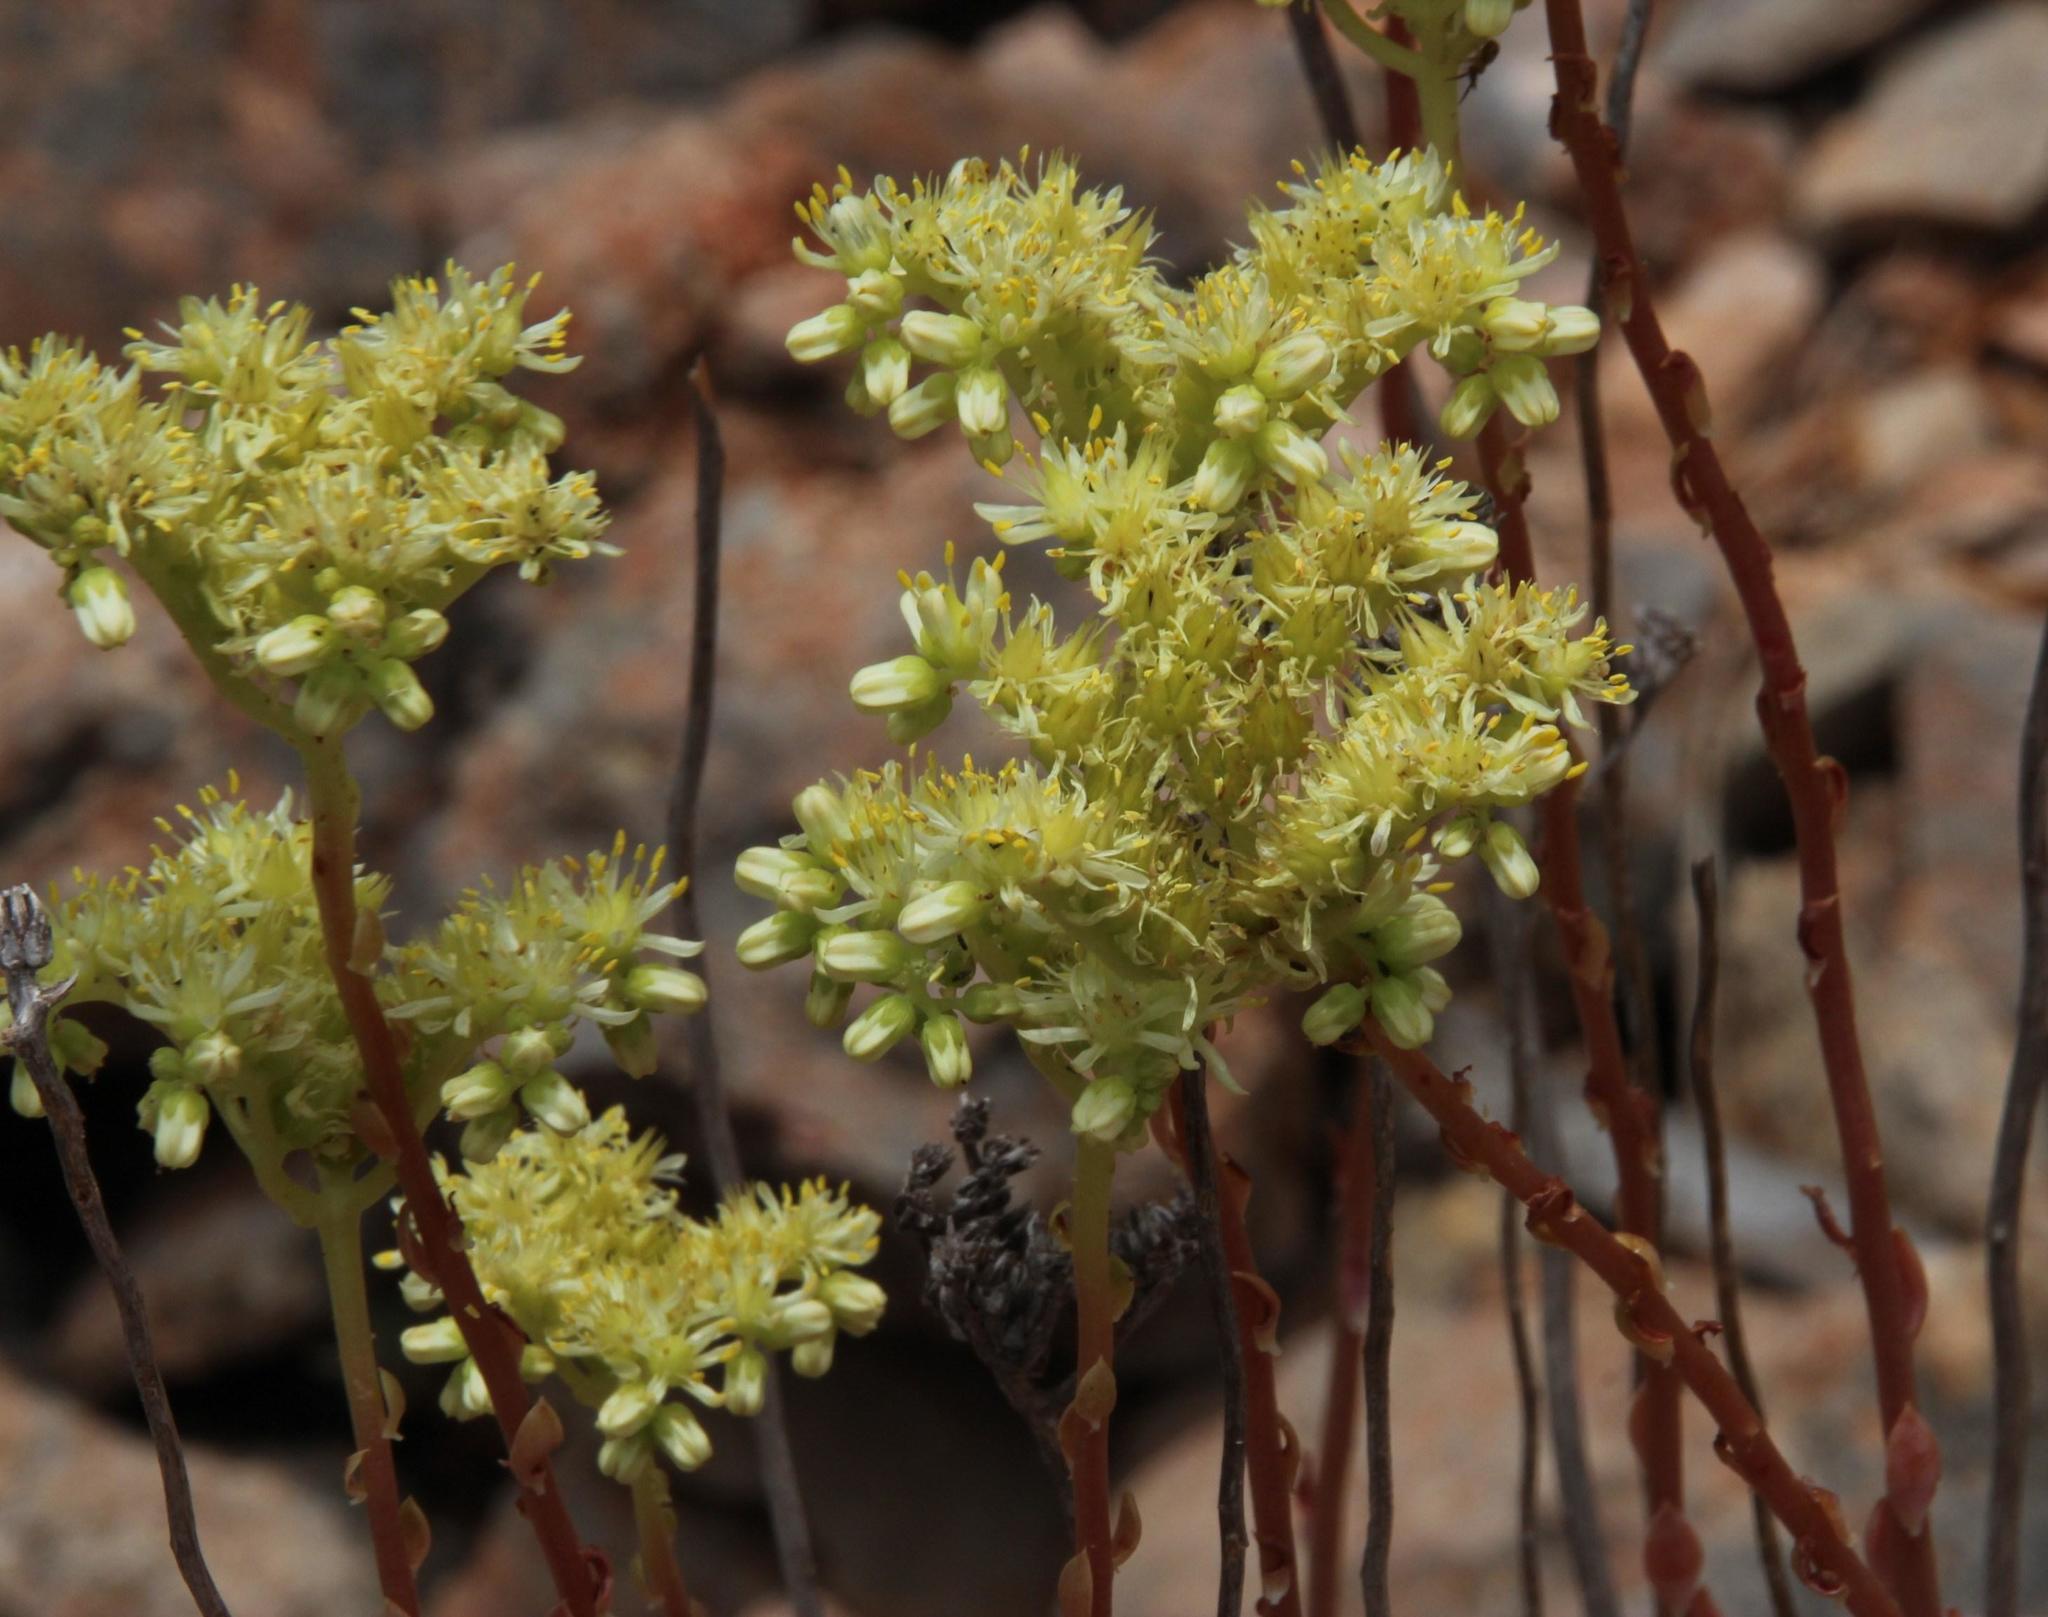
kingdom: Plantae
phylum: Tracheophyta
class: Magnoliopsida
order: Saxifragales
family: Crassulaceae
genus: Petrosedum
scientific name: Petrosedum sediforme
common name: Pale stonecrop
